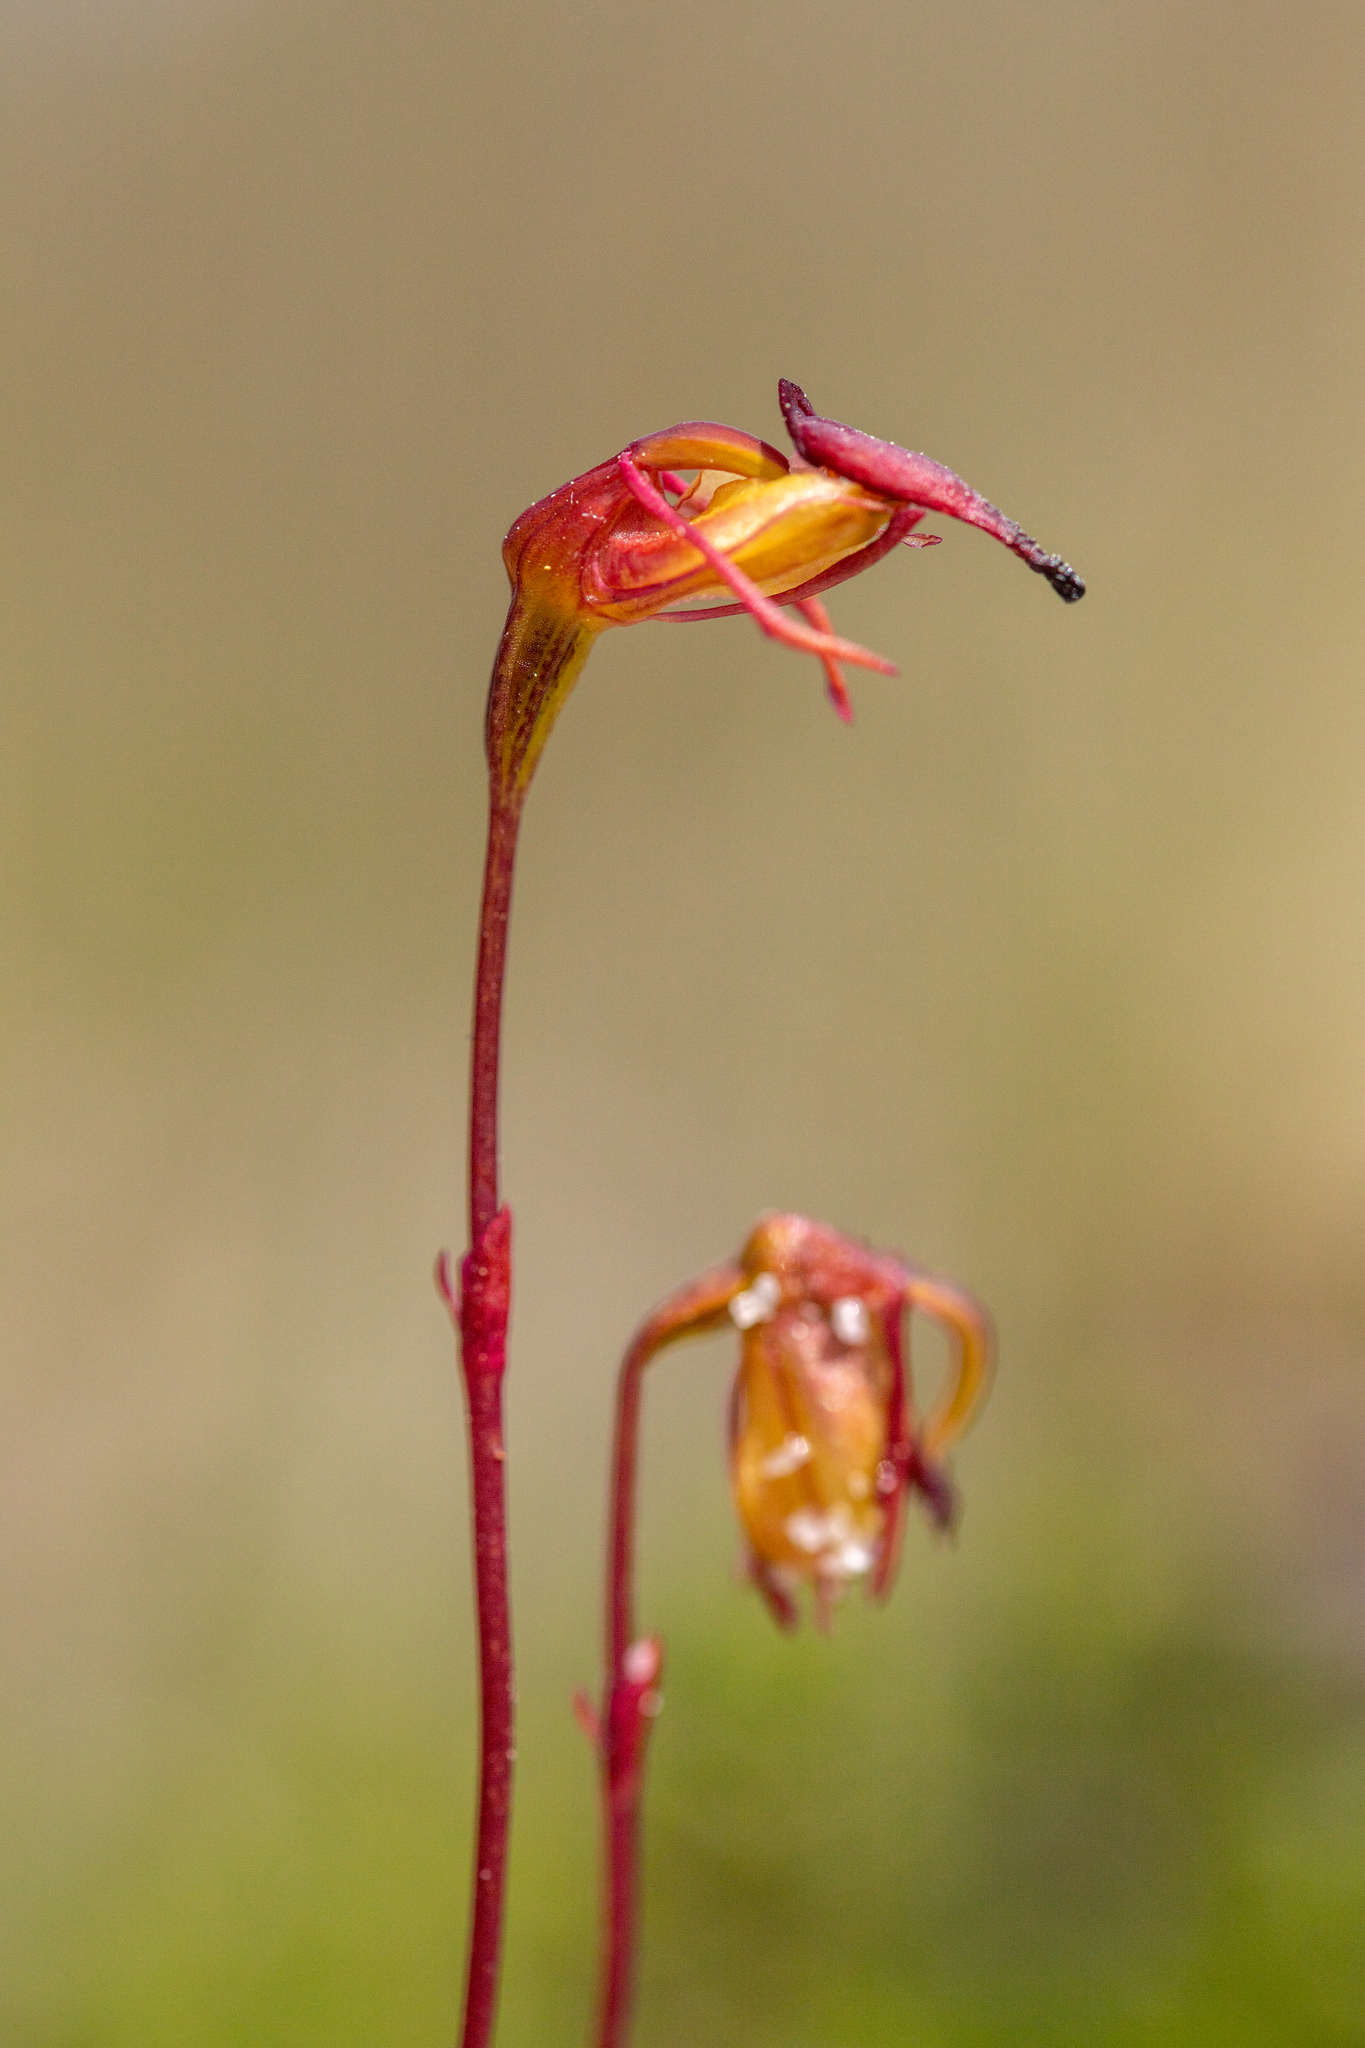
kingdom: Plantae
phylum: Tracheophyta
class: Liliopsida
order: Asparagales
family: Orchidaceae
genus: Caleana
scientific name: Caleana hortiorum
